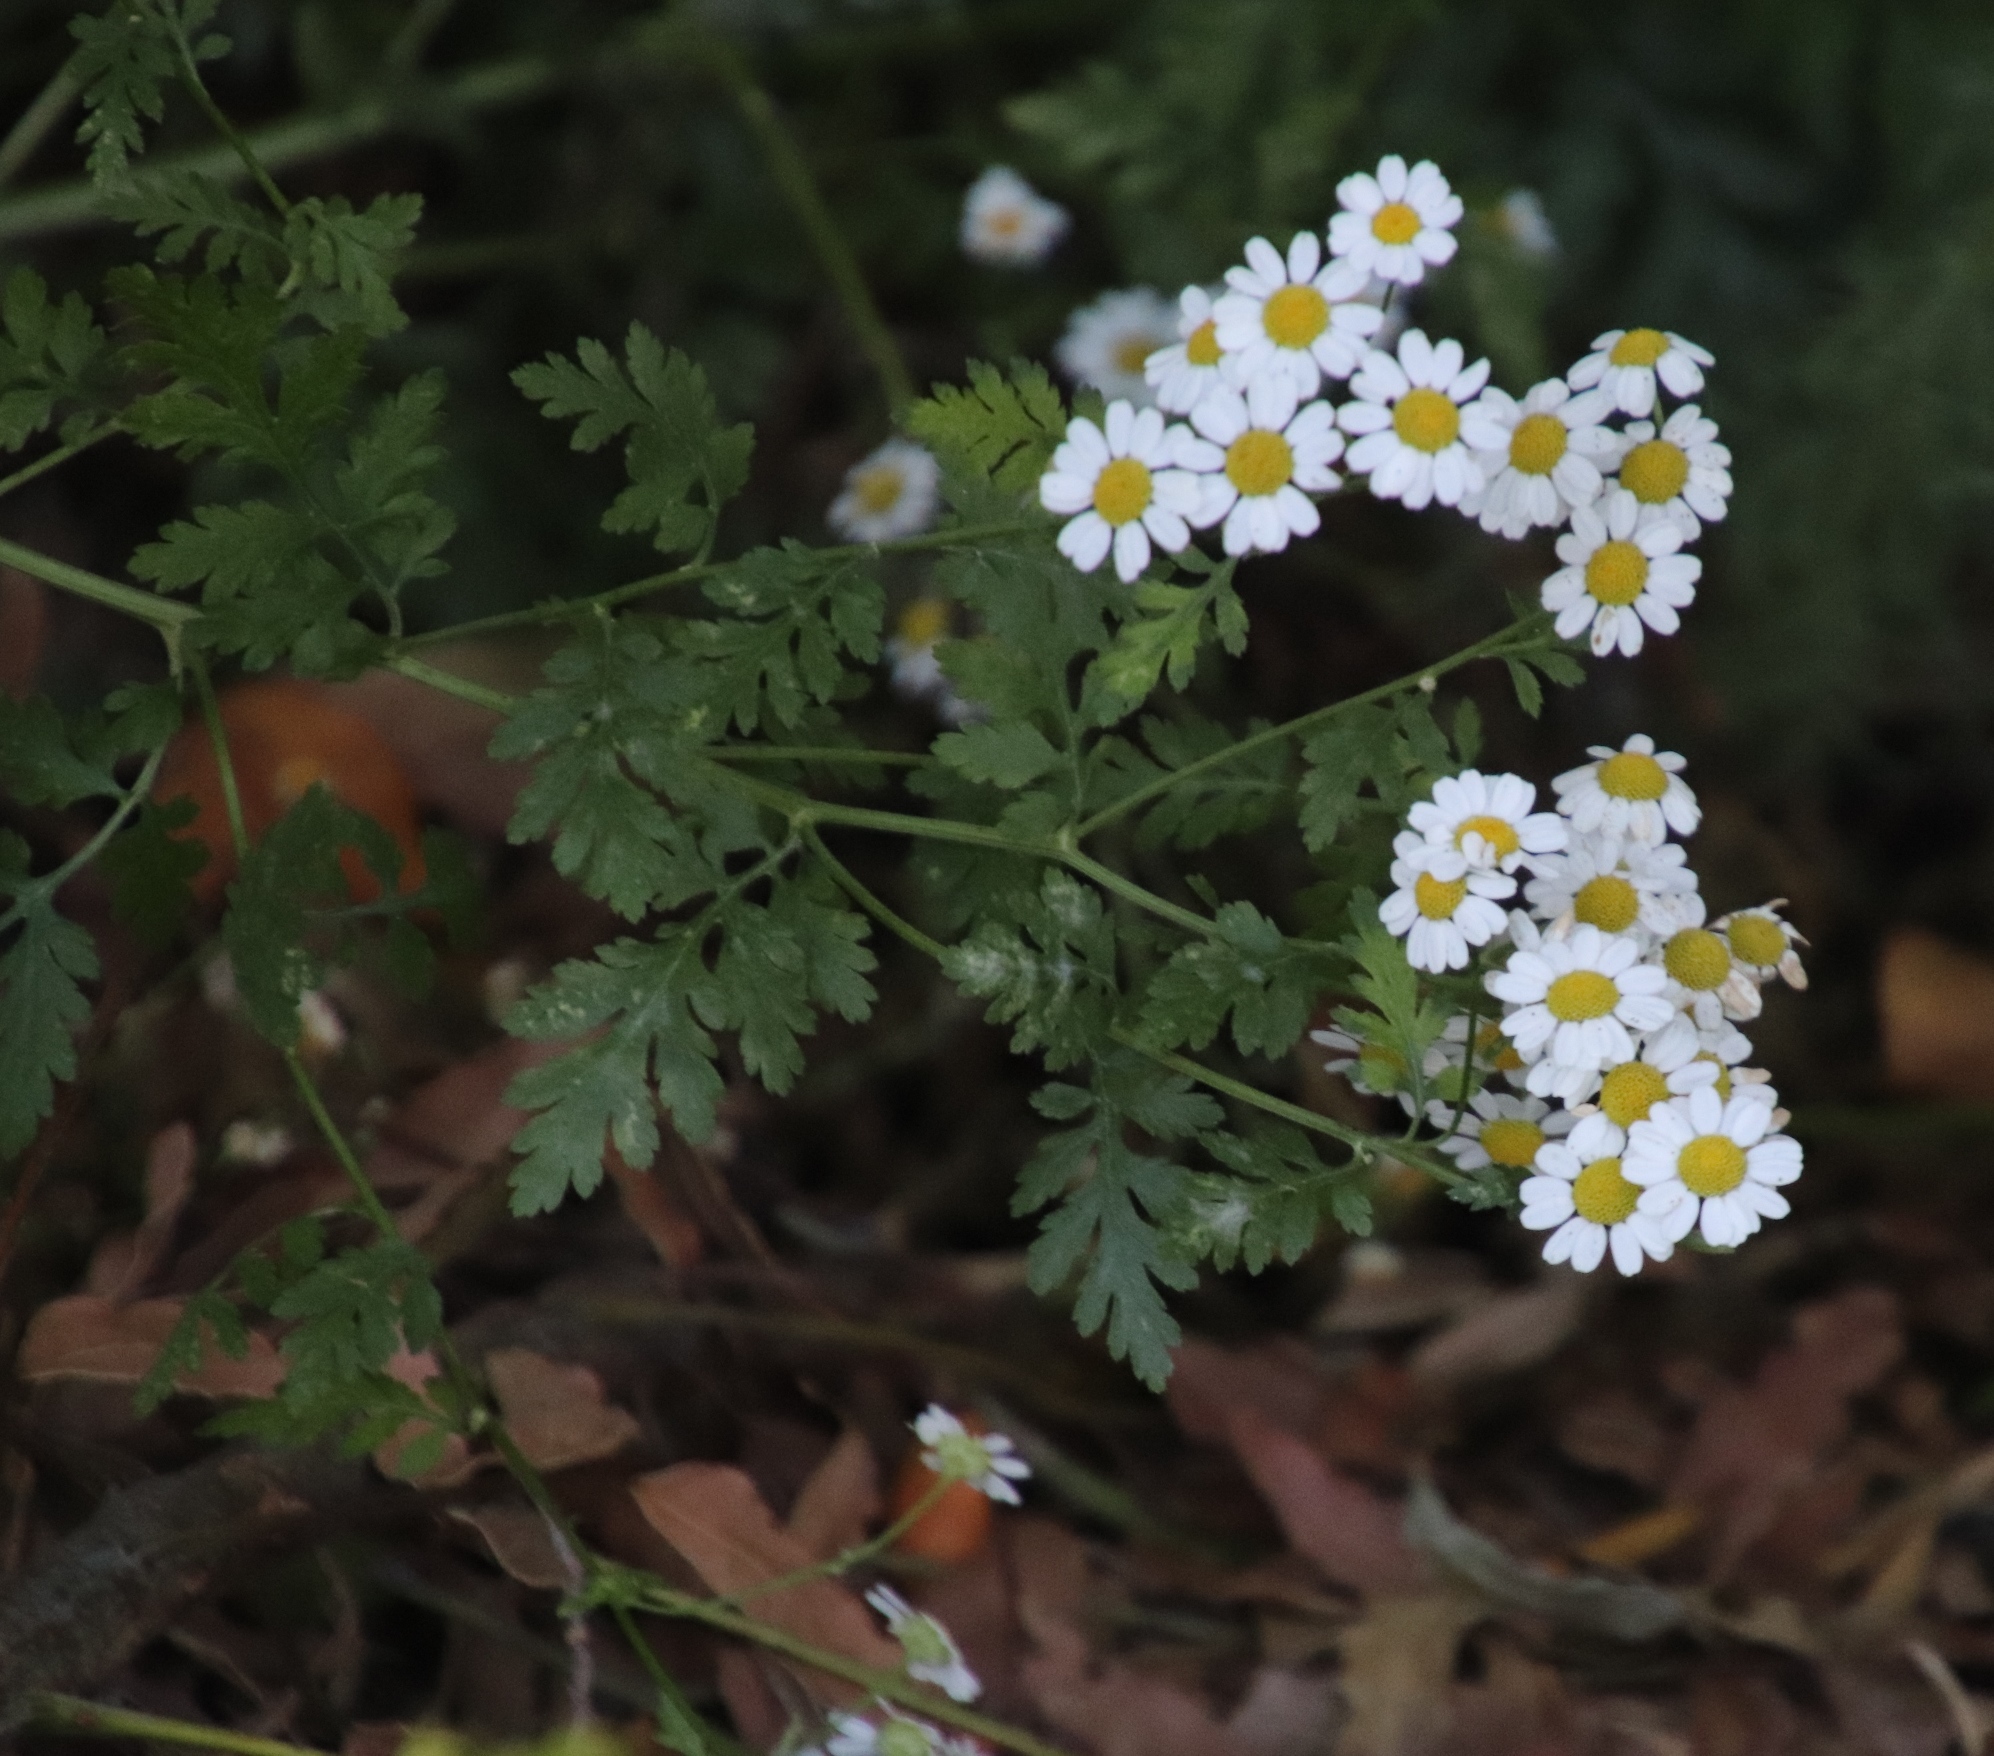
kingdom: Plantae
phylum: Tracheophyta
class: Magnoliopsida
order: Asterales
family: Asteraceae
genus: Tanacetum
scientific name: Tanacetum parthenium
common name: Feverfew
